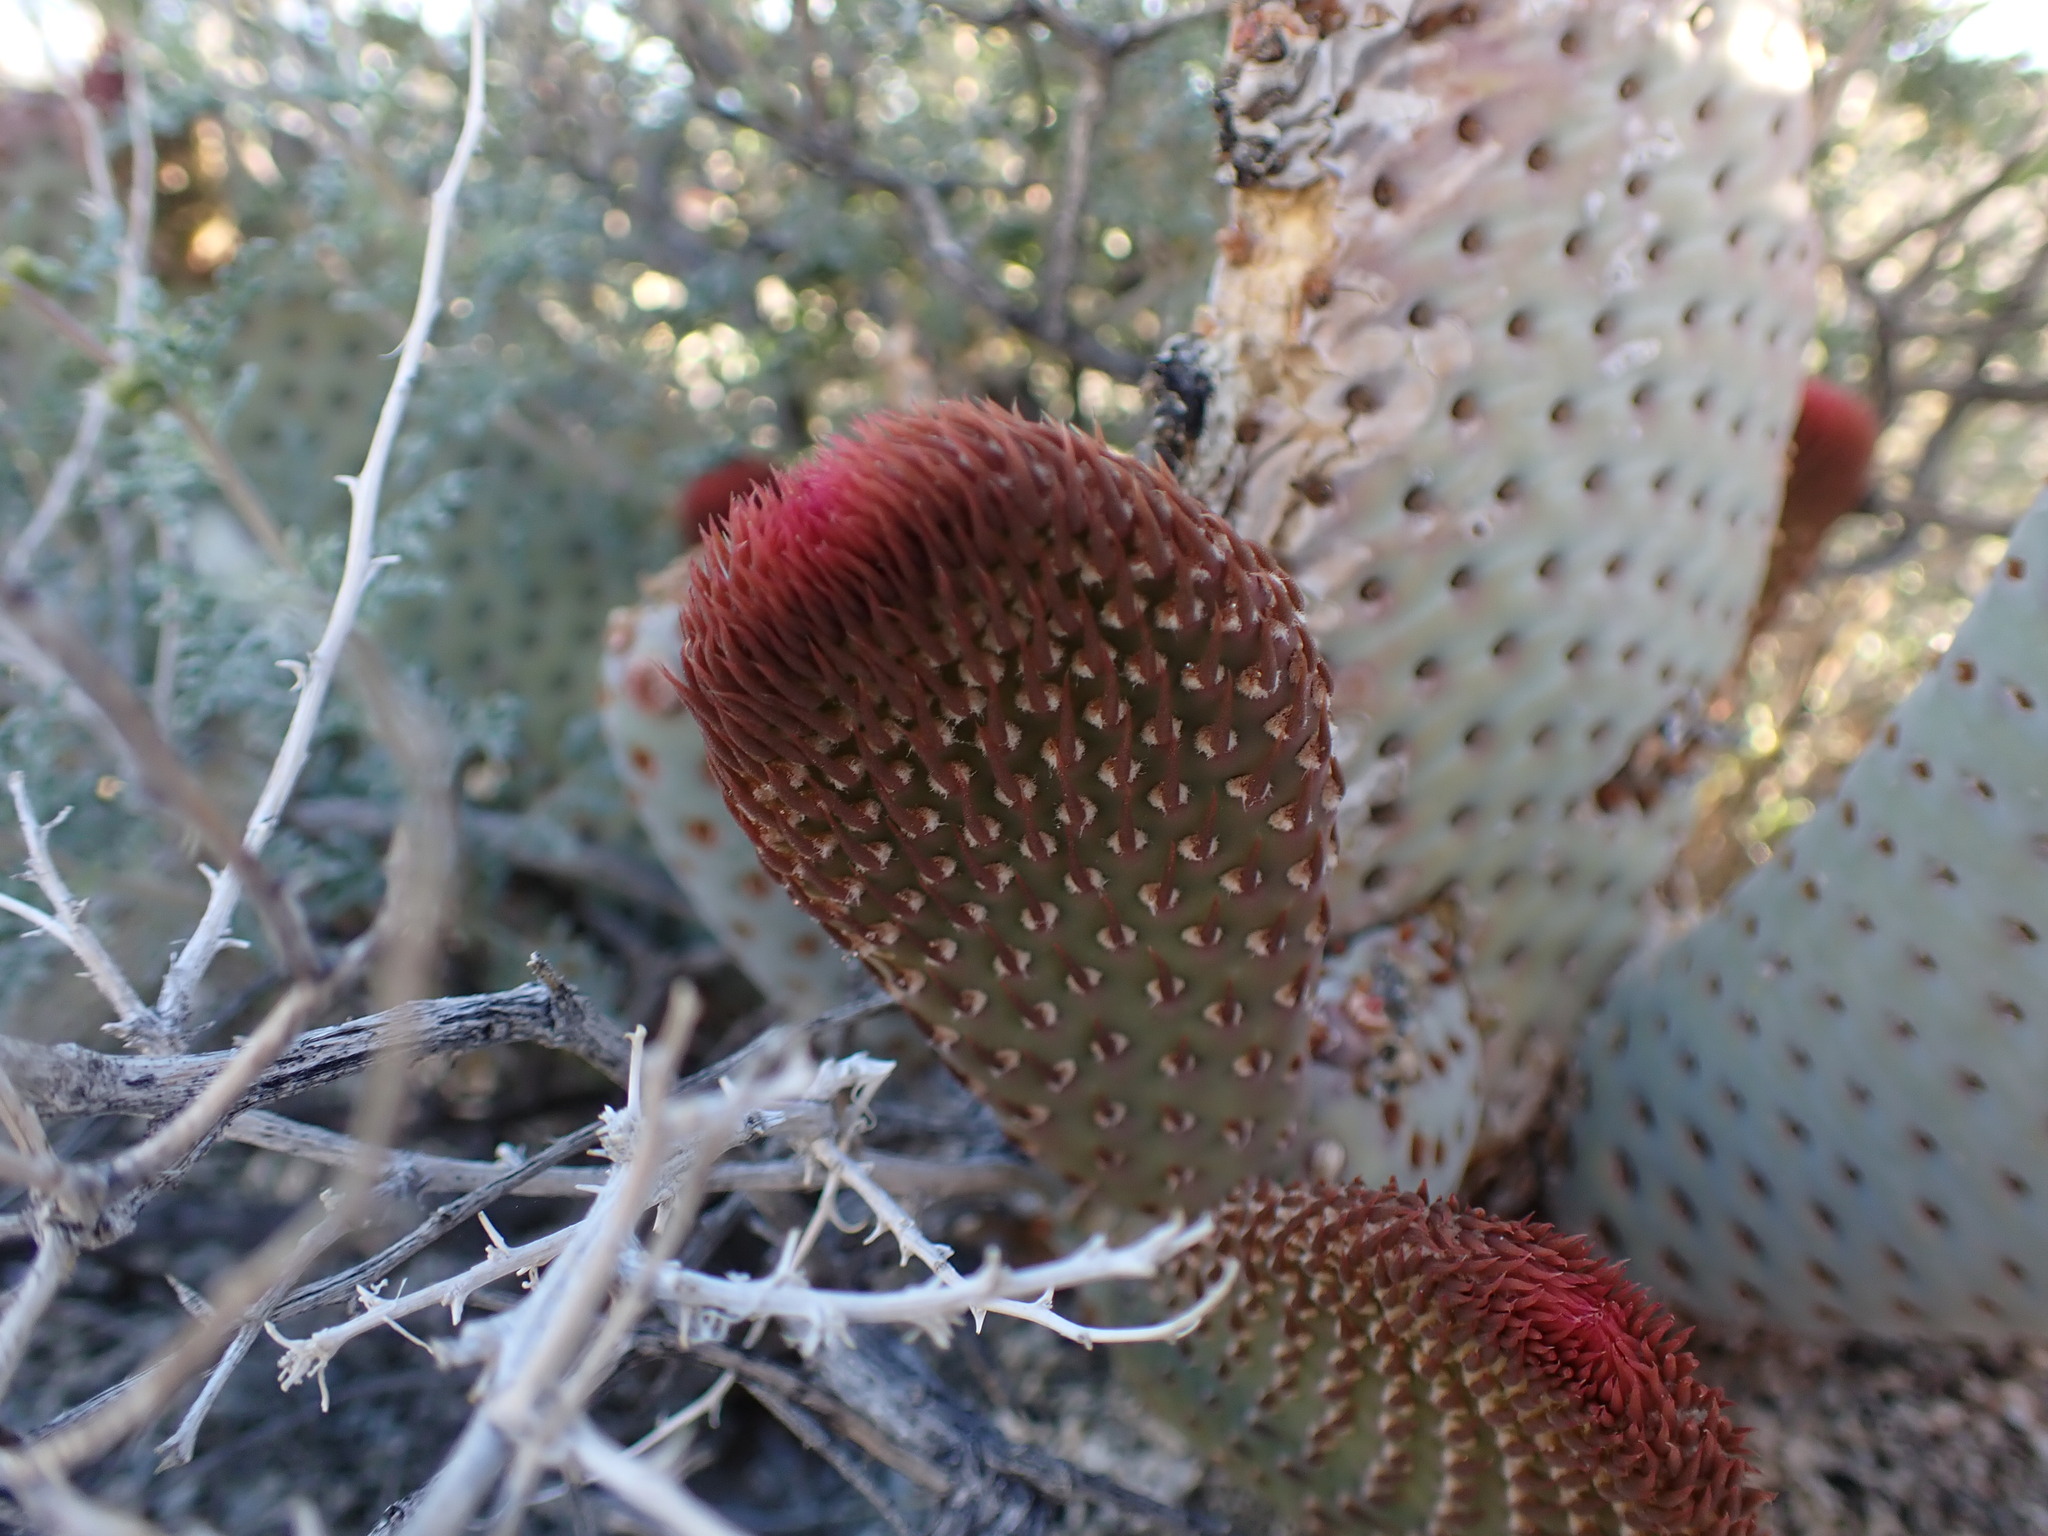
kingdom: Plantae
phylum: Tracheophyta
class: Magnoliopsida
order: Caryophyllales
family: Cactaceae
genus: Opuntia
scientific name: Opuntia basilaris
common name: Beavertail prickly-pear
